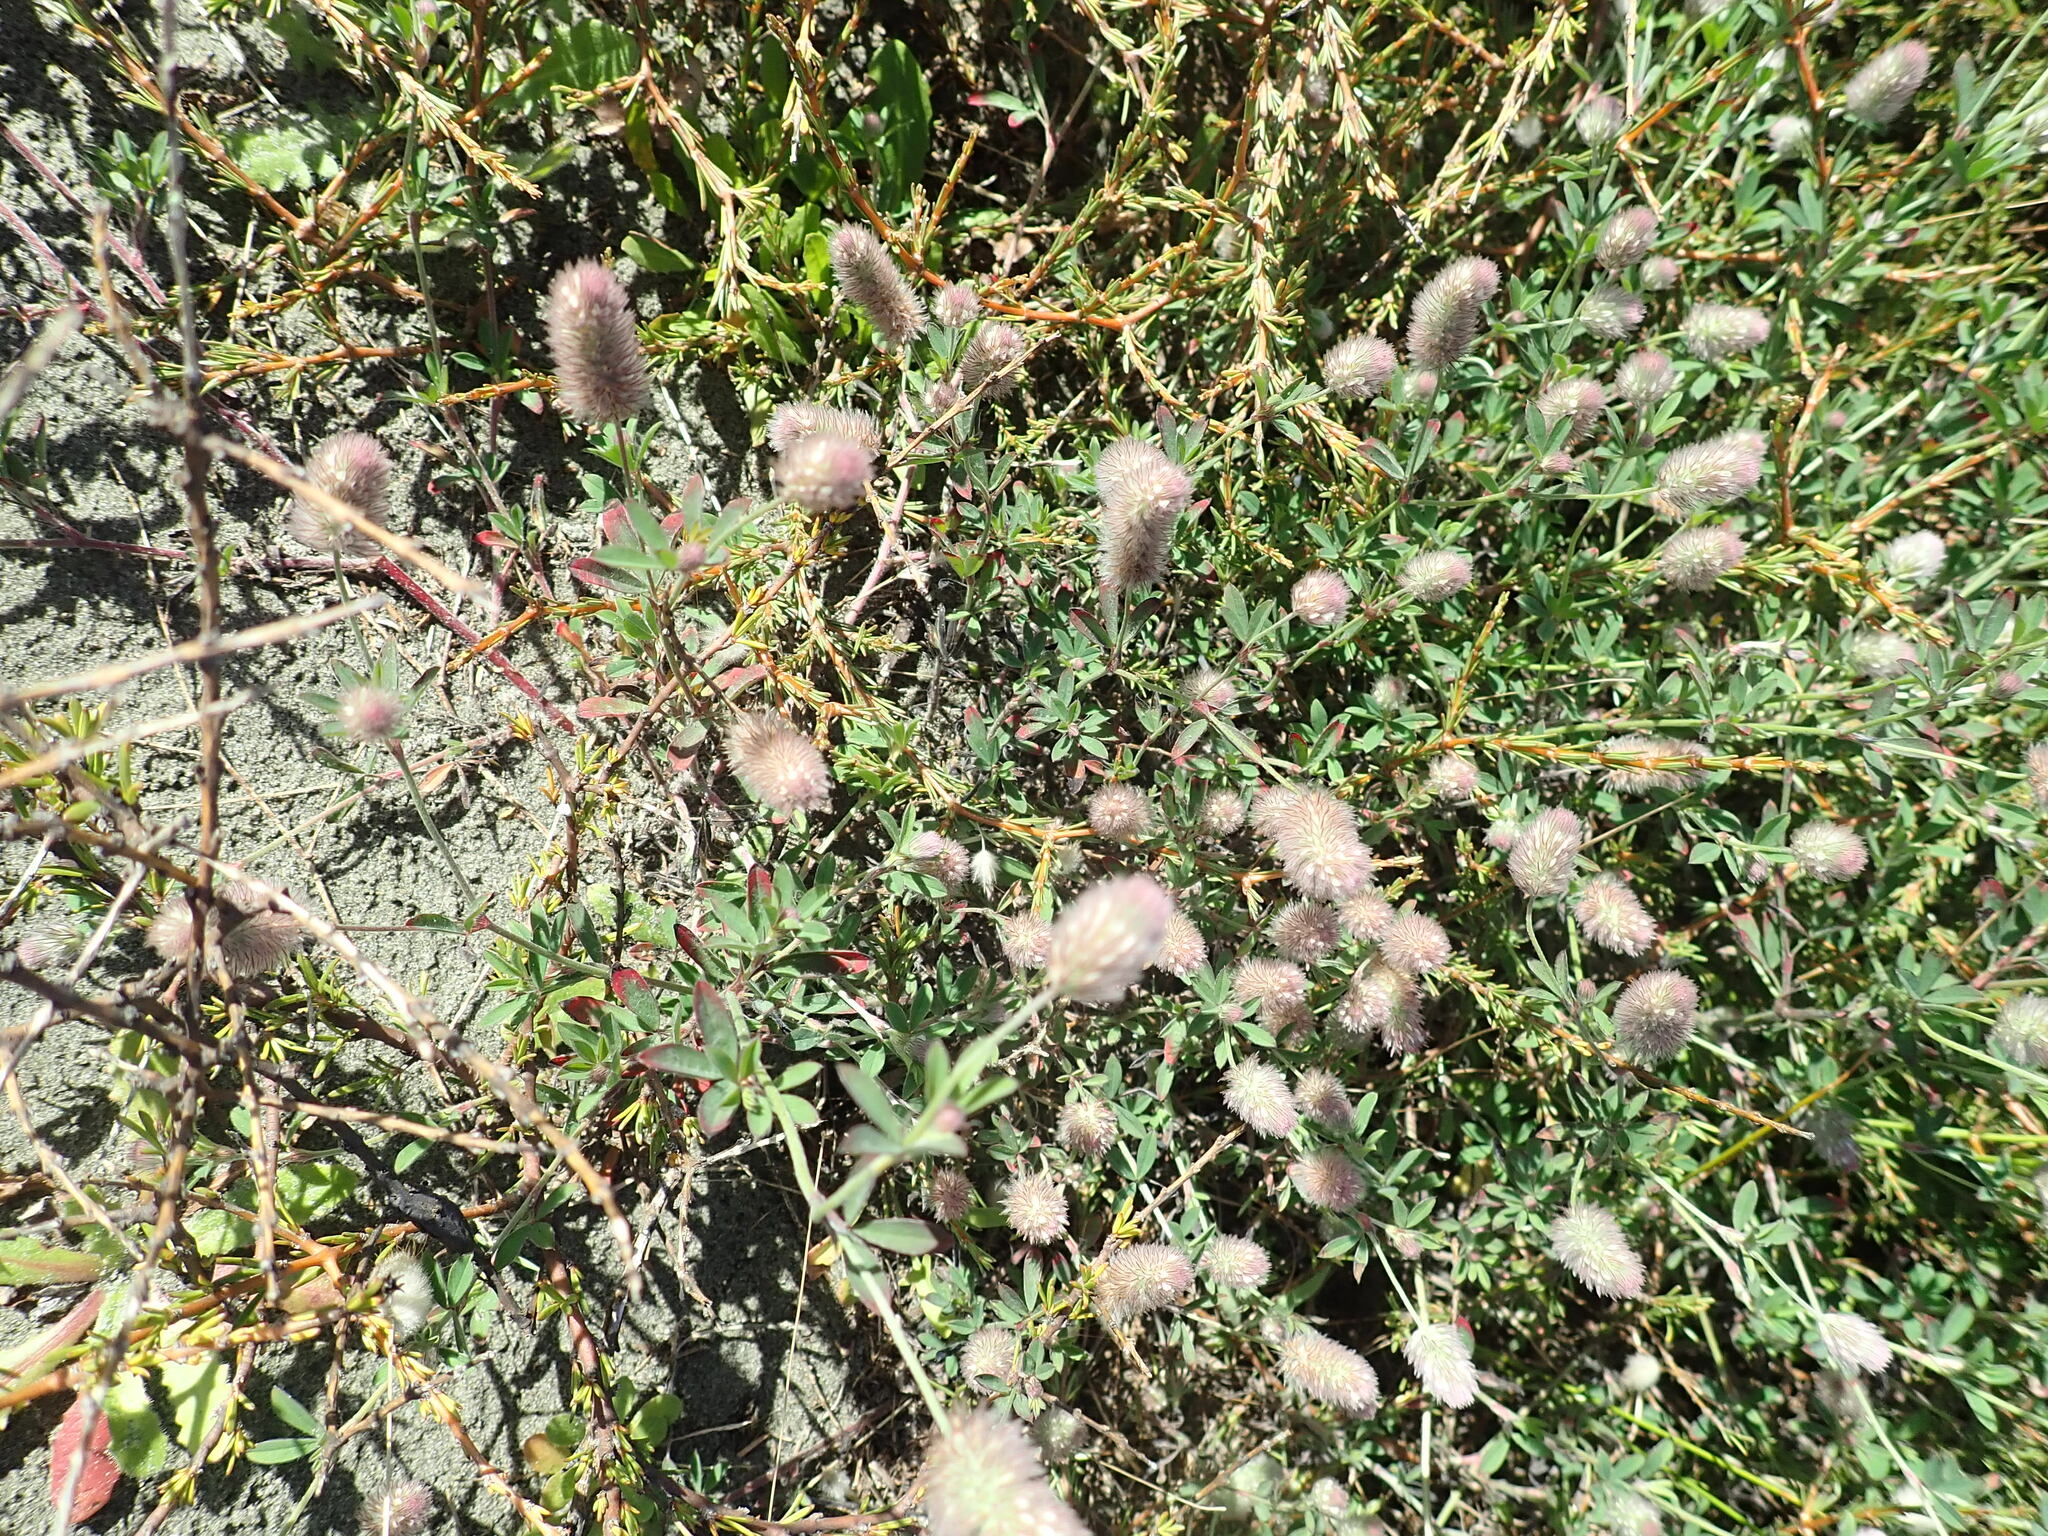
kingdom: Plantae
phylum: Tracheophyta
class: Magnoliopsida
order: Fabales
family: Fabaceae
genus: Trifolium
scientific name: Trifolium arvense
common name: Hare's-foot clover
